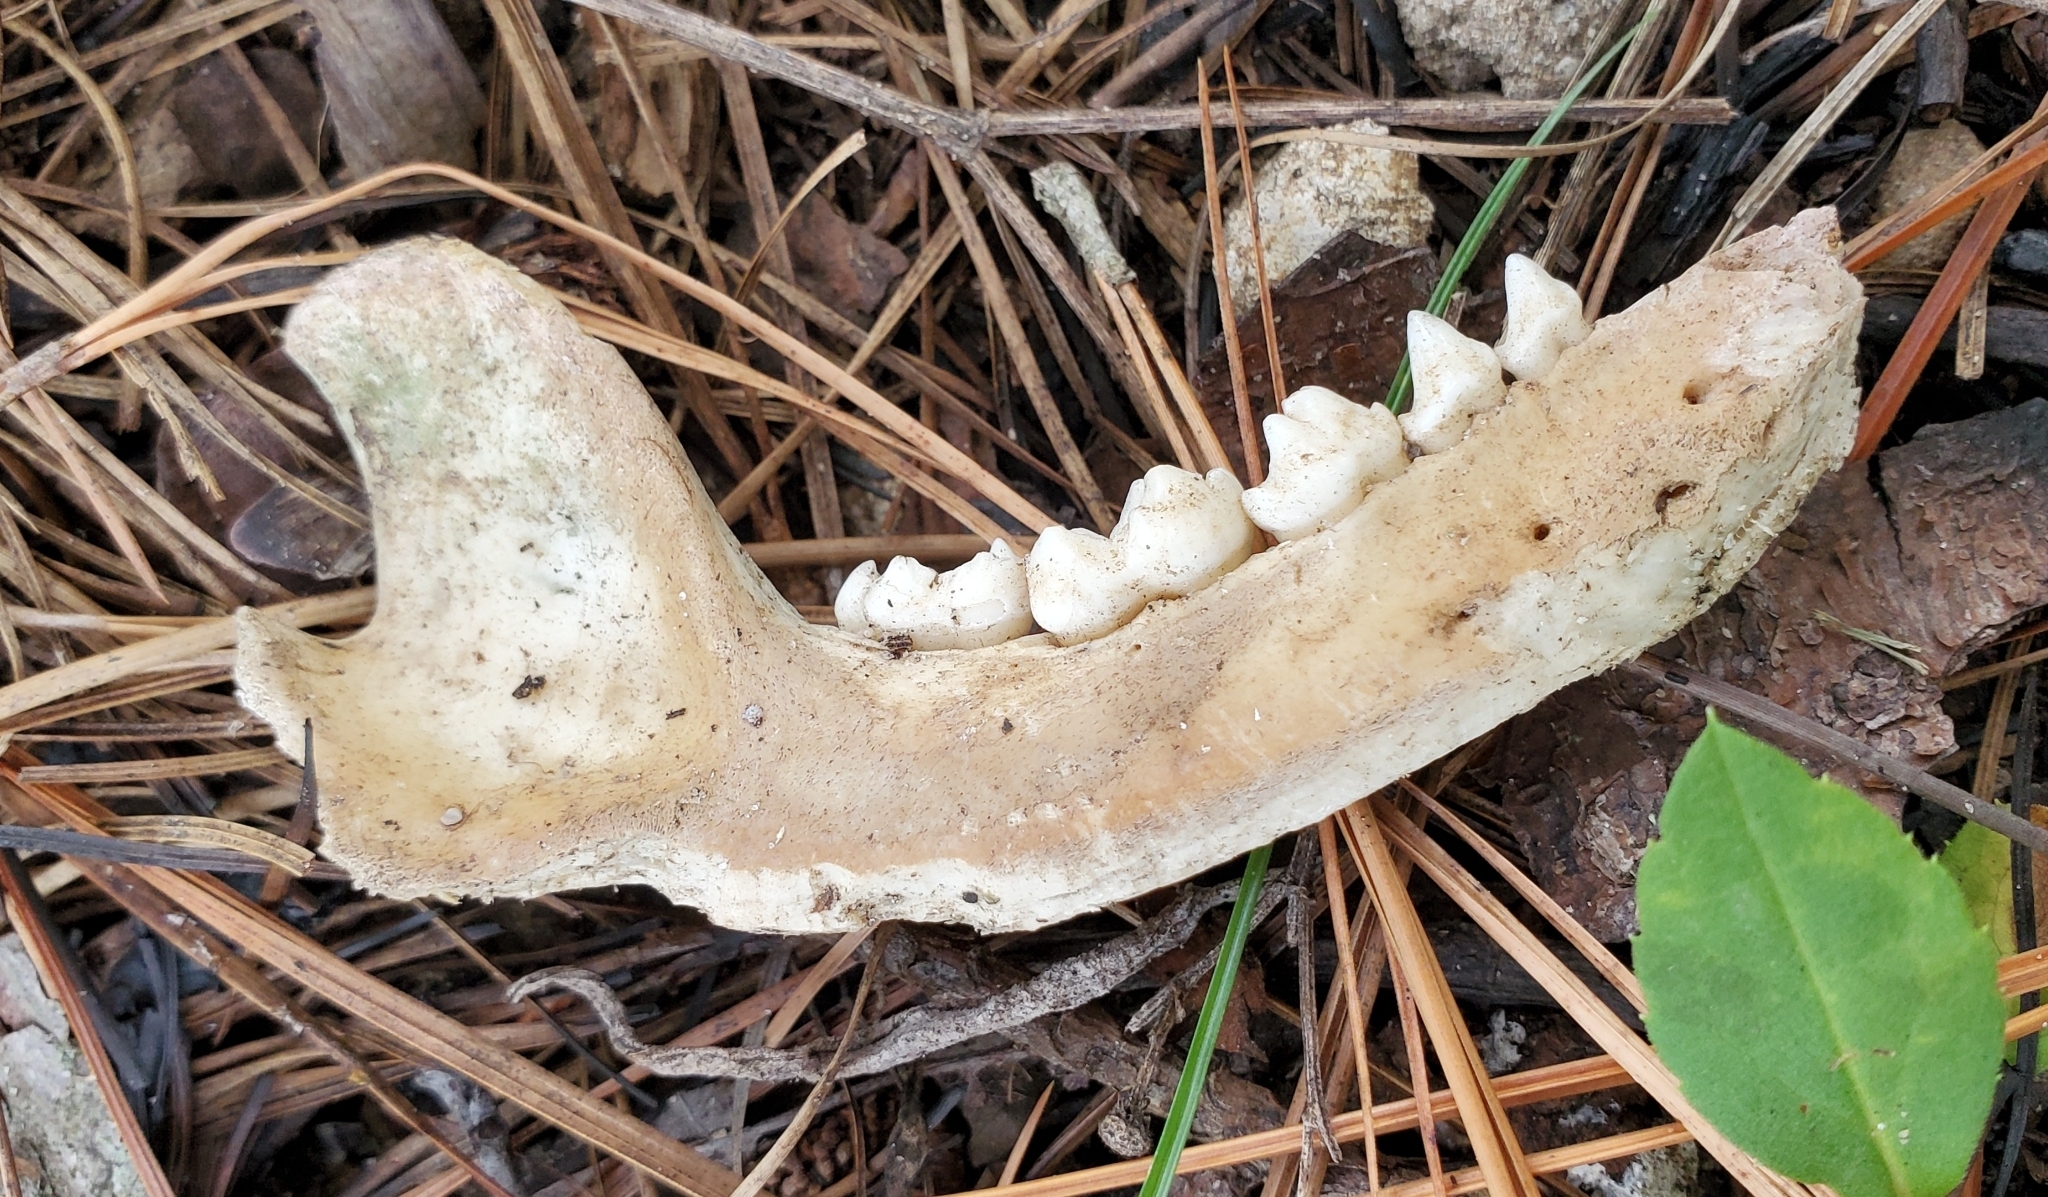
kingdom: Animalia
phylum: Chordata
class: Mammalia
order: Carnivora
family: Procyonidae
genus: Procyon
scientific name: Procyon lotor
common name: Raccoon
